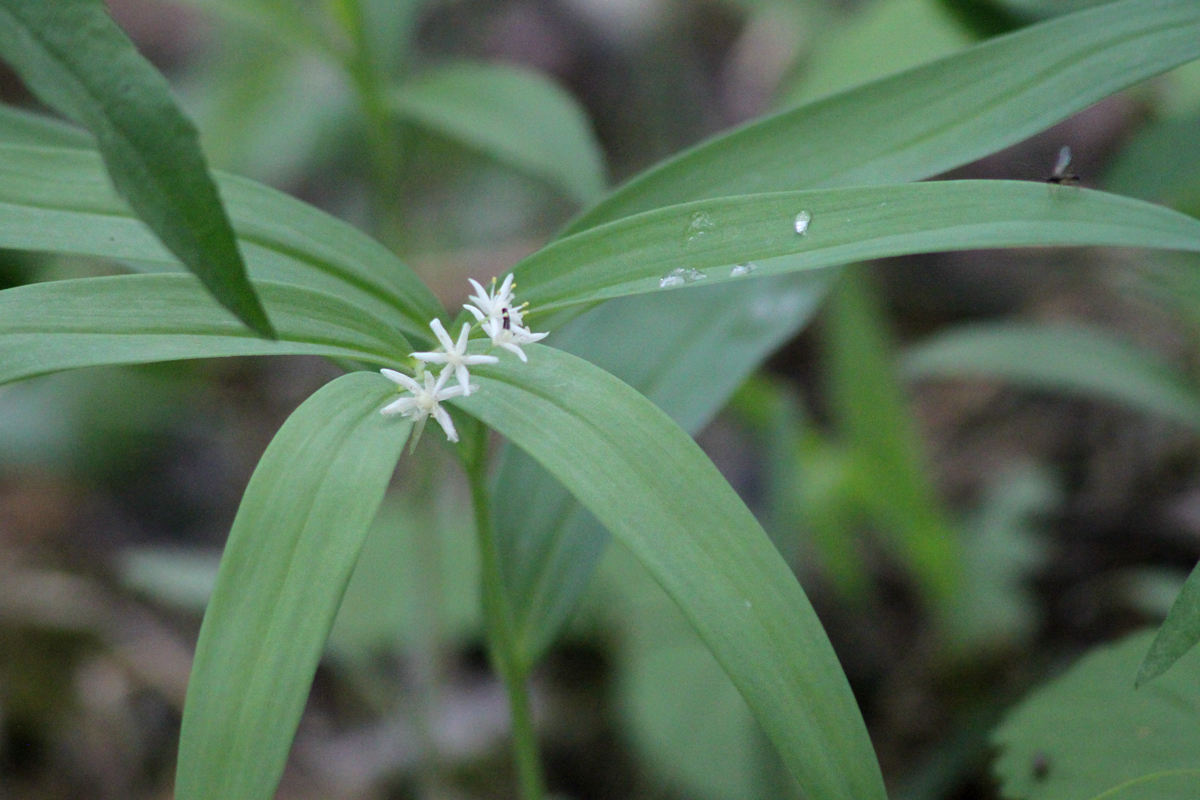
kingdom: Plantae
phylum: Tracheophyta
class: Liliopsida
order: Asparagales
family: Asparagaceae
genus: Maianthemum
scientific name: Maianthemum stellatum
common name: Little false solomon's seal
